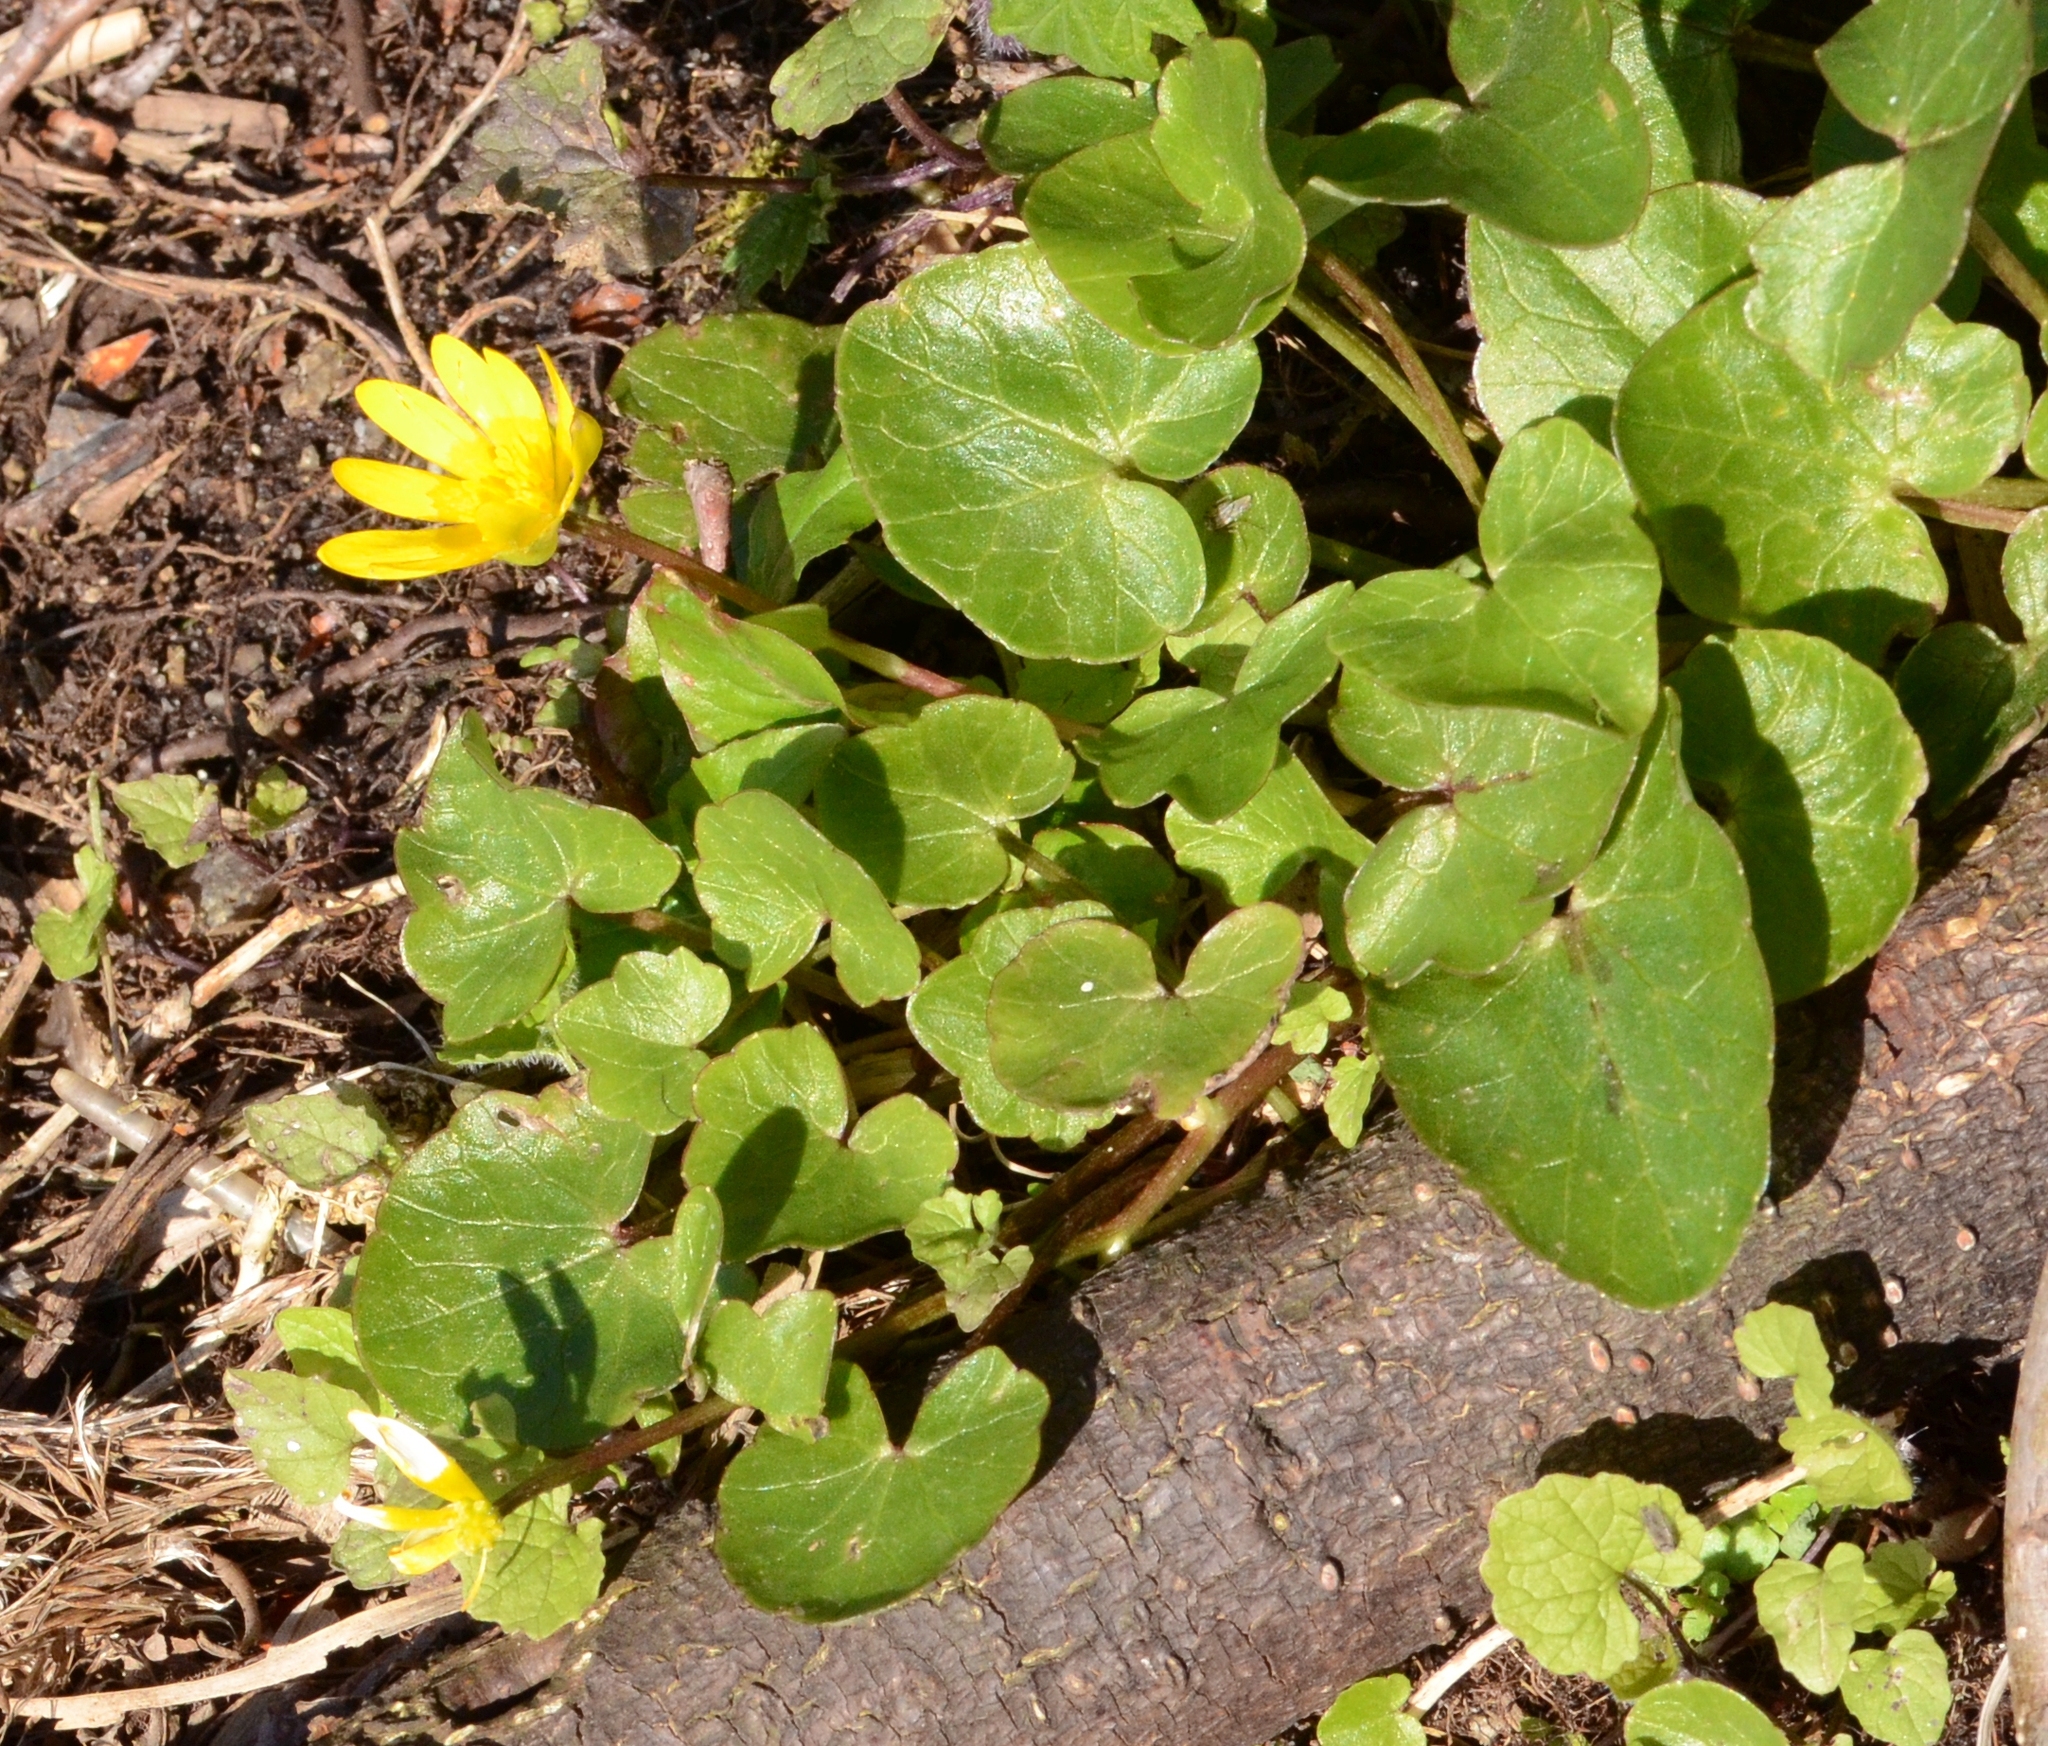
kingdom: Plantae
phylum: Tracheophyta
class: Magnoliopsida
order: Ranunculales
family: Ranunculaceae
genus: Ficaria
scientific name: Ficaria verna
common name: Lesser celandine
